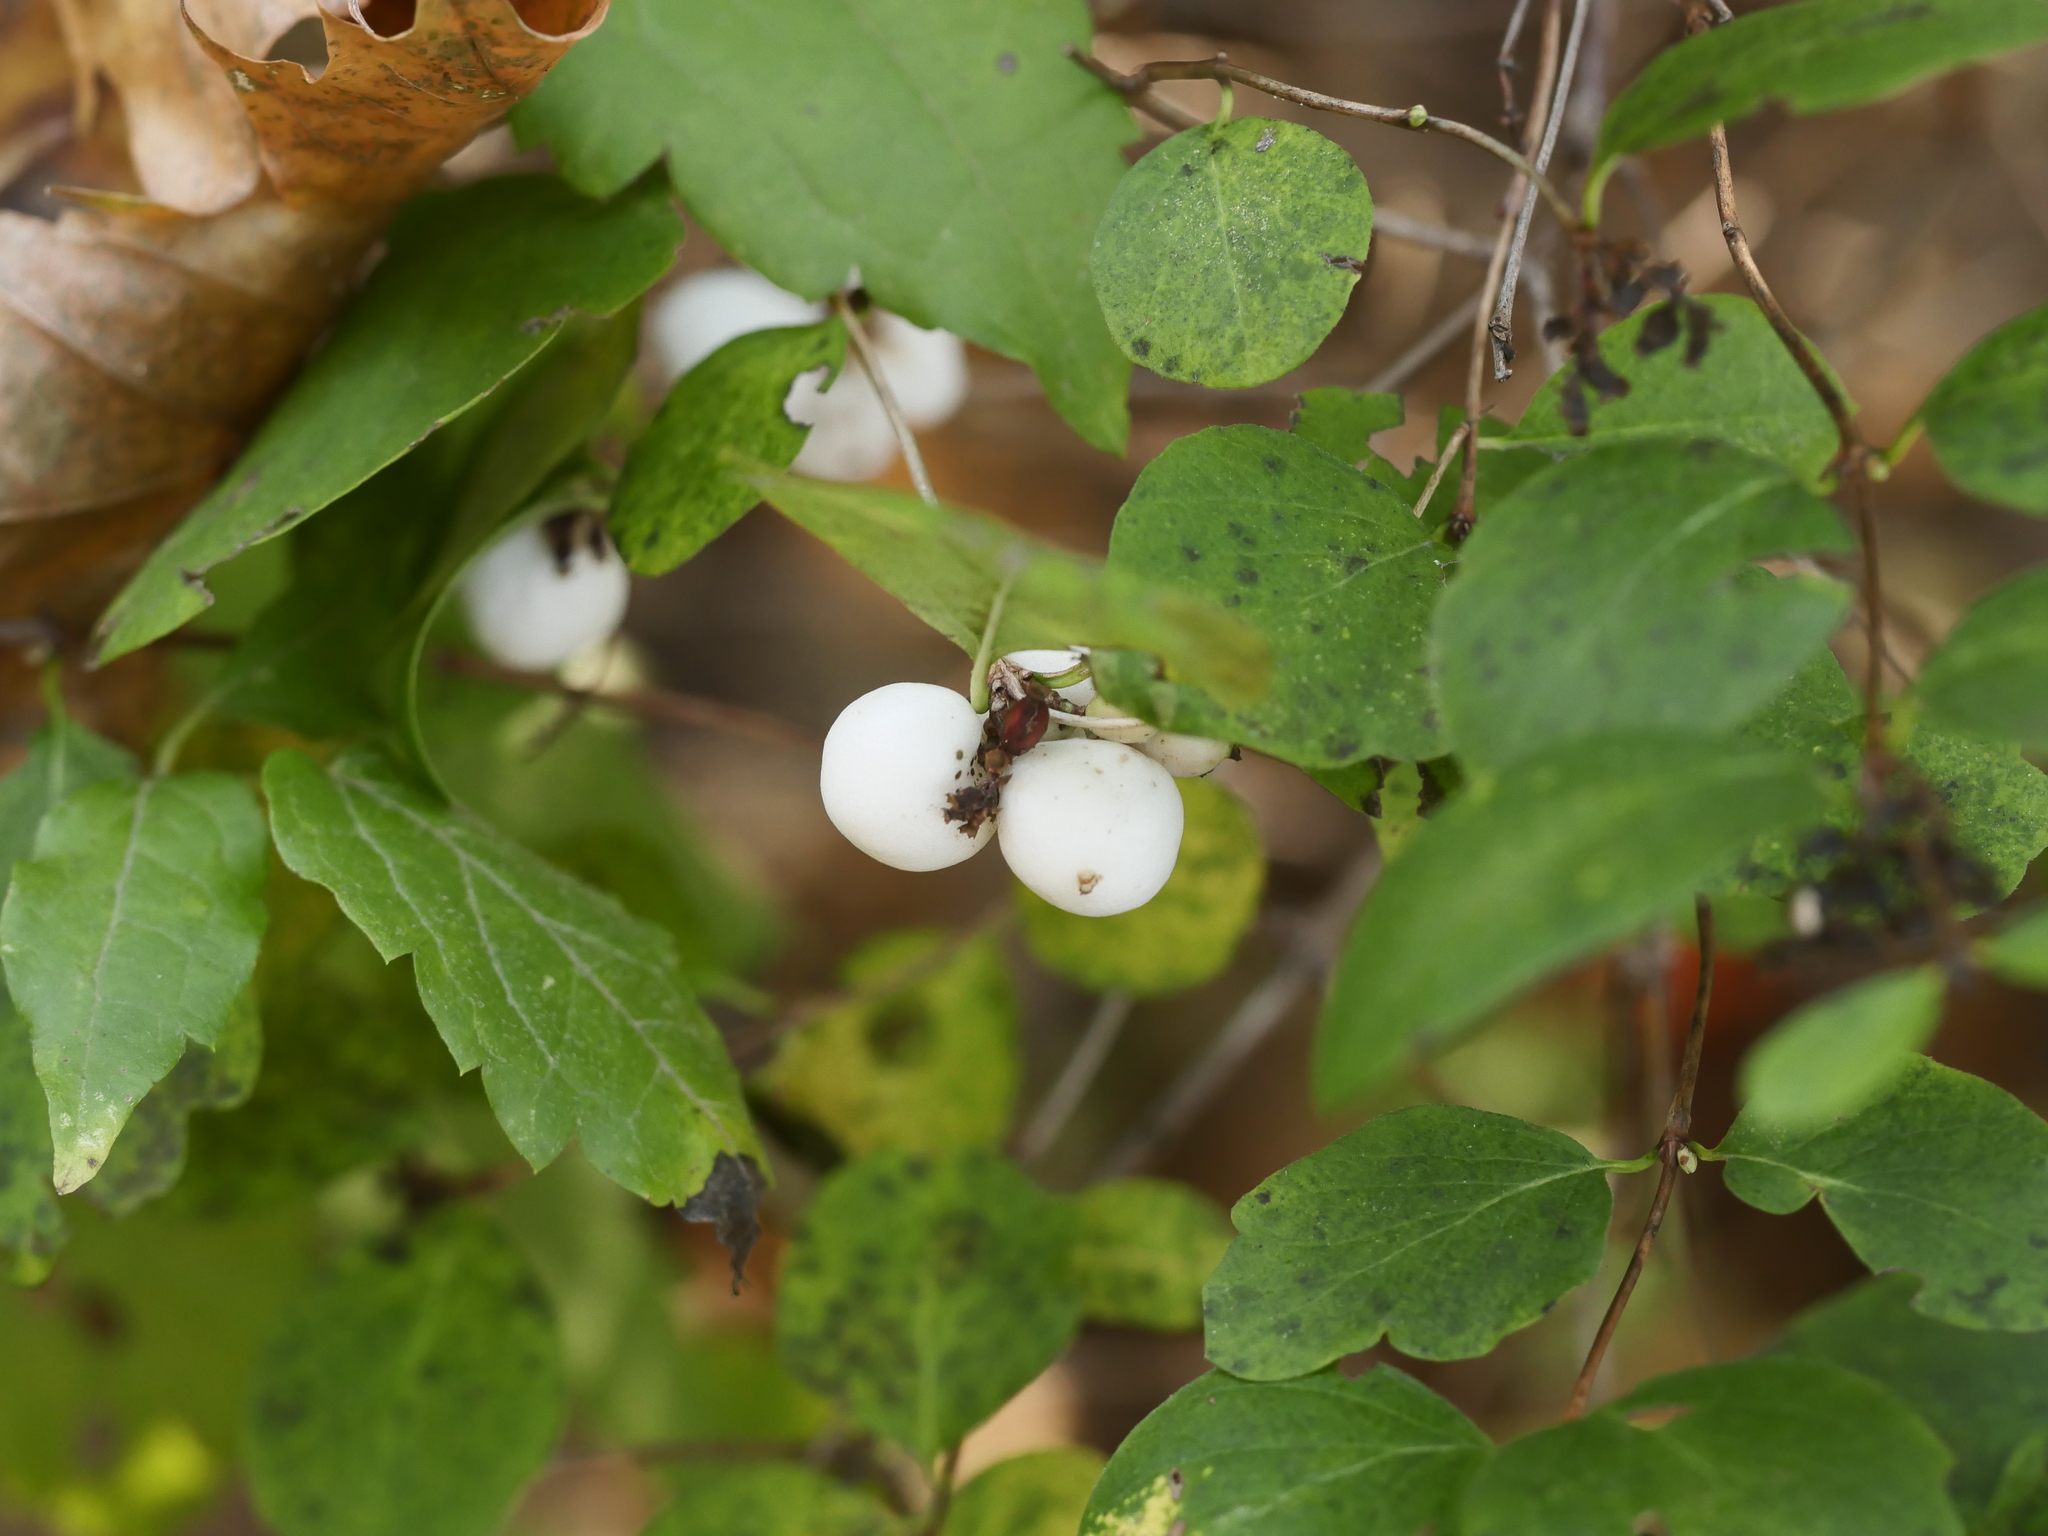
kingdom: Plantae
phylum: Tracheophyta
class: Magnoliopsida
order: Dipsacales
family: Caprifoliaceae
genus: Symphoricarpos
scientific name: Symphoricarpos albus
